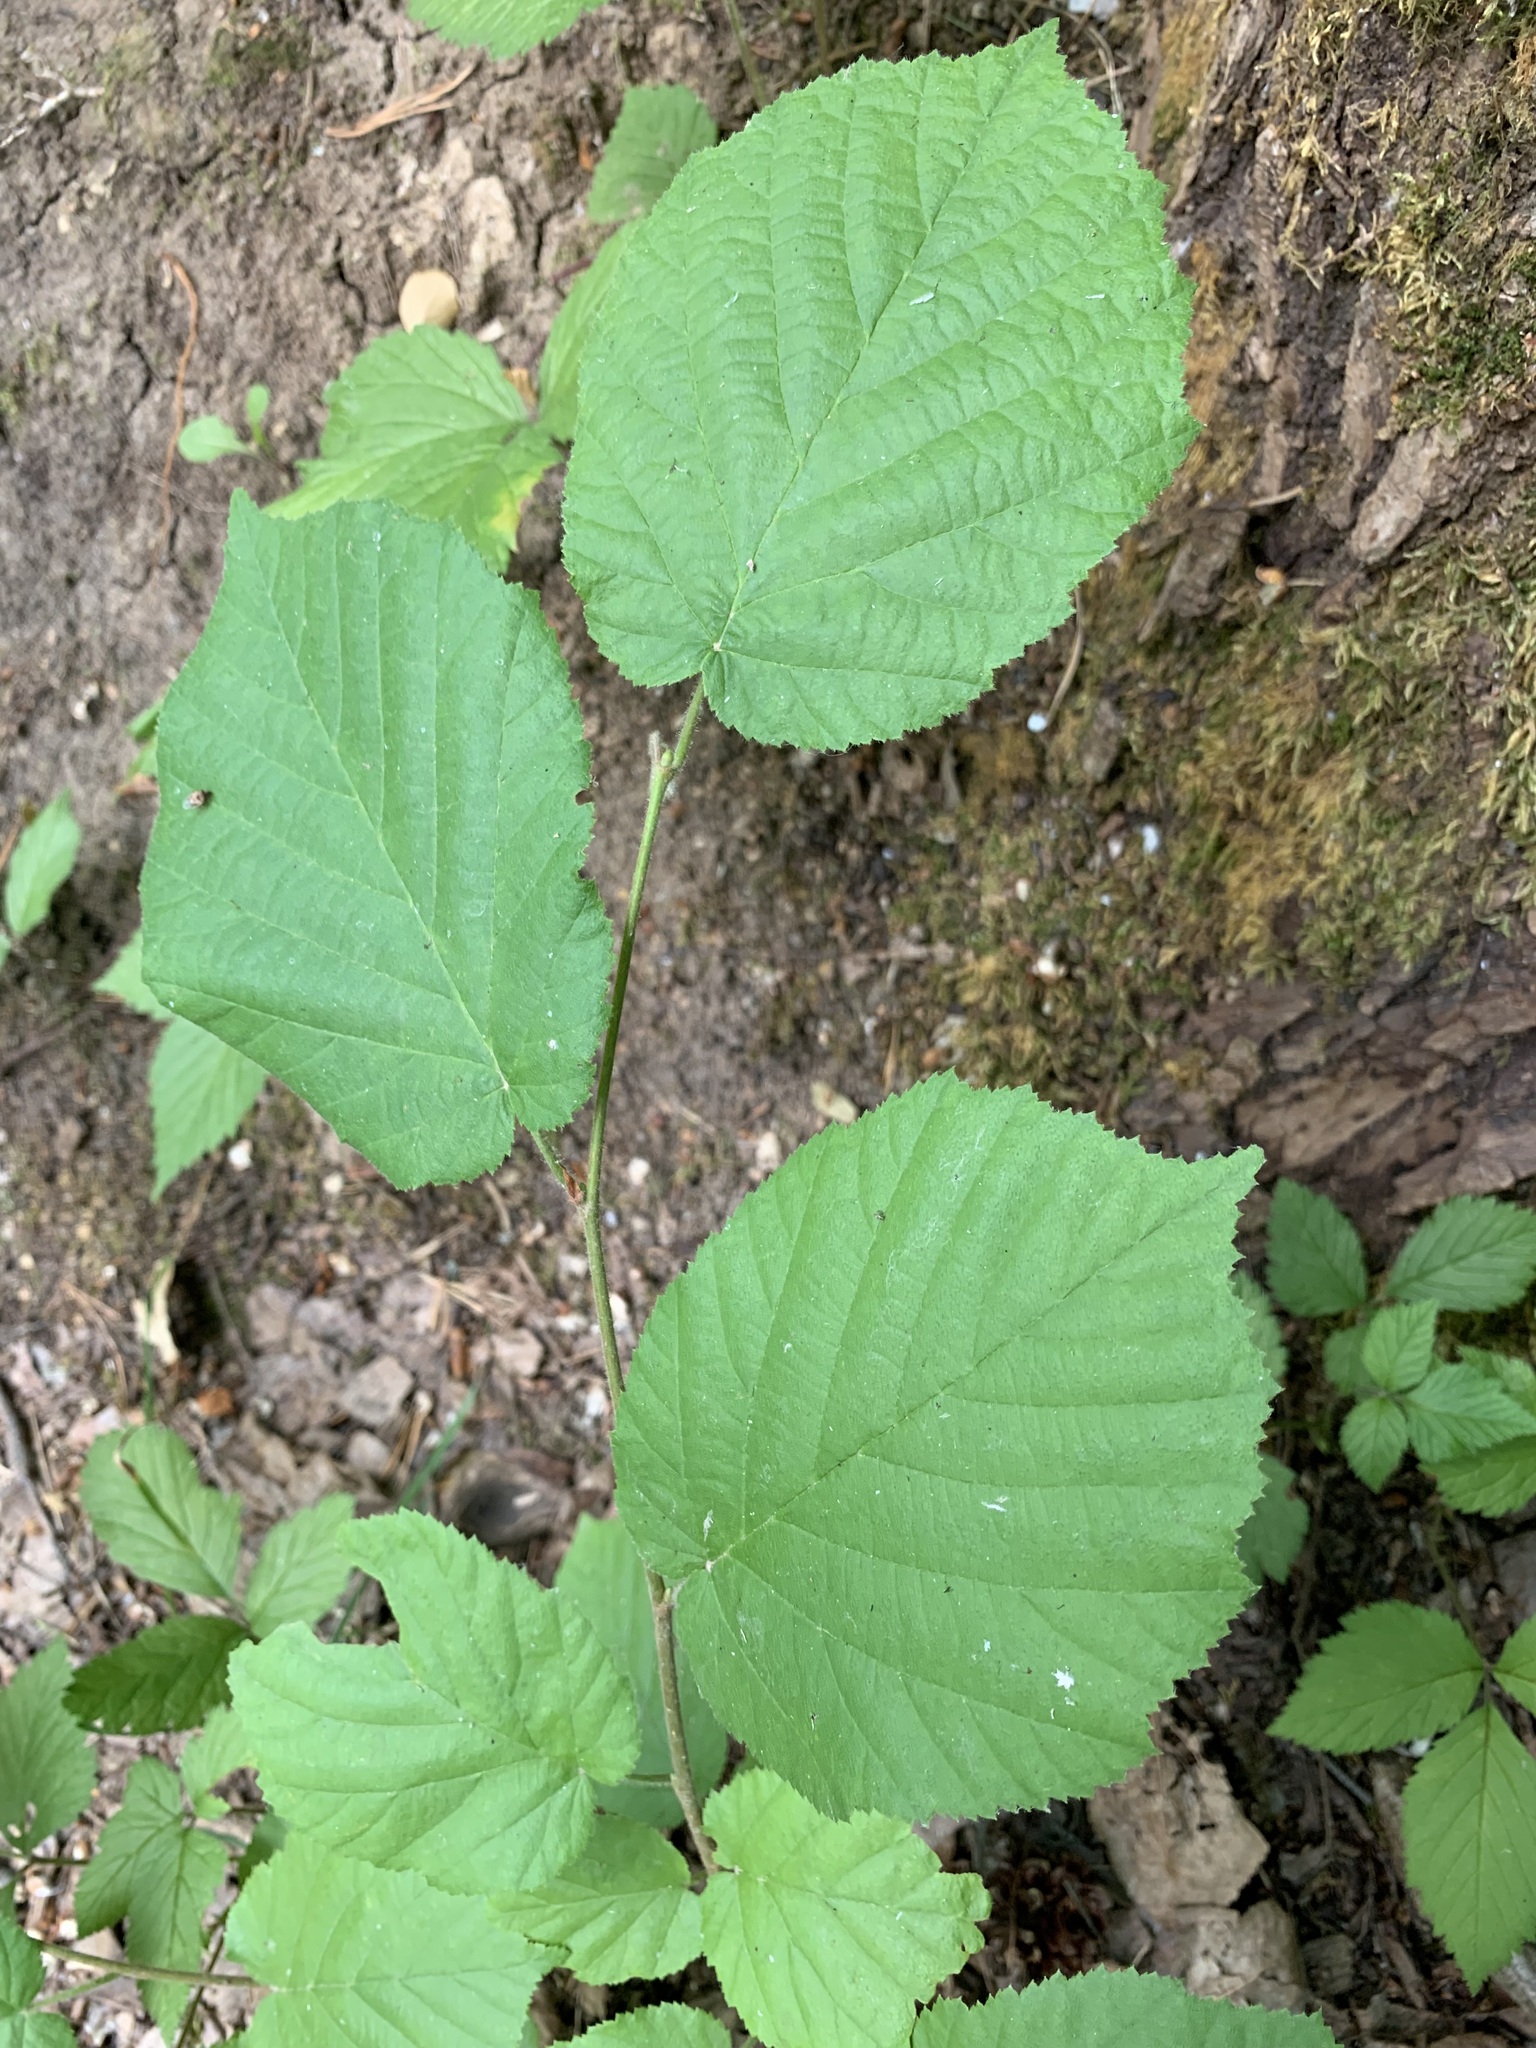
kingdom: Plantae
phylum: Tracheophyta
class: Magnoliopsida
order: Fagales
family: Betulaceae
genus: Corylus
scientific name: Corylus avellana
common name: European hazel
